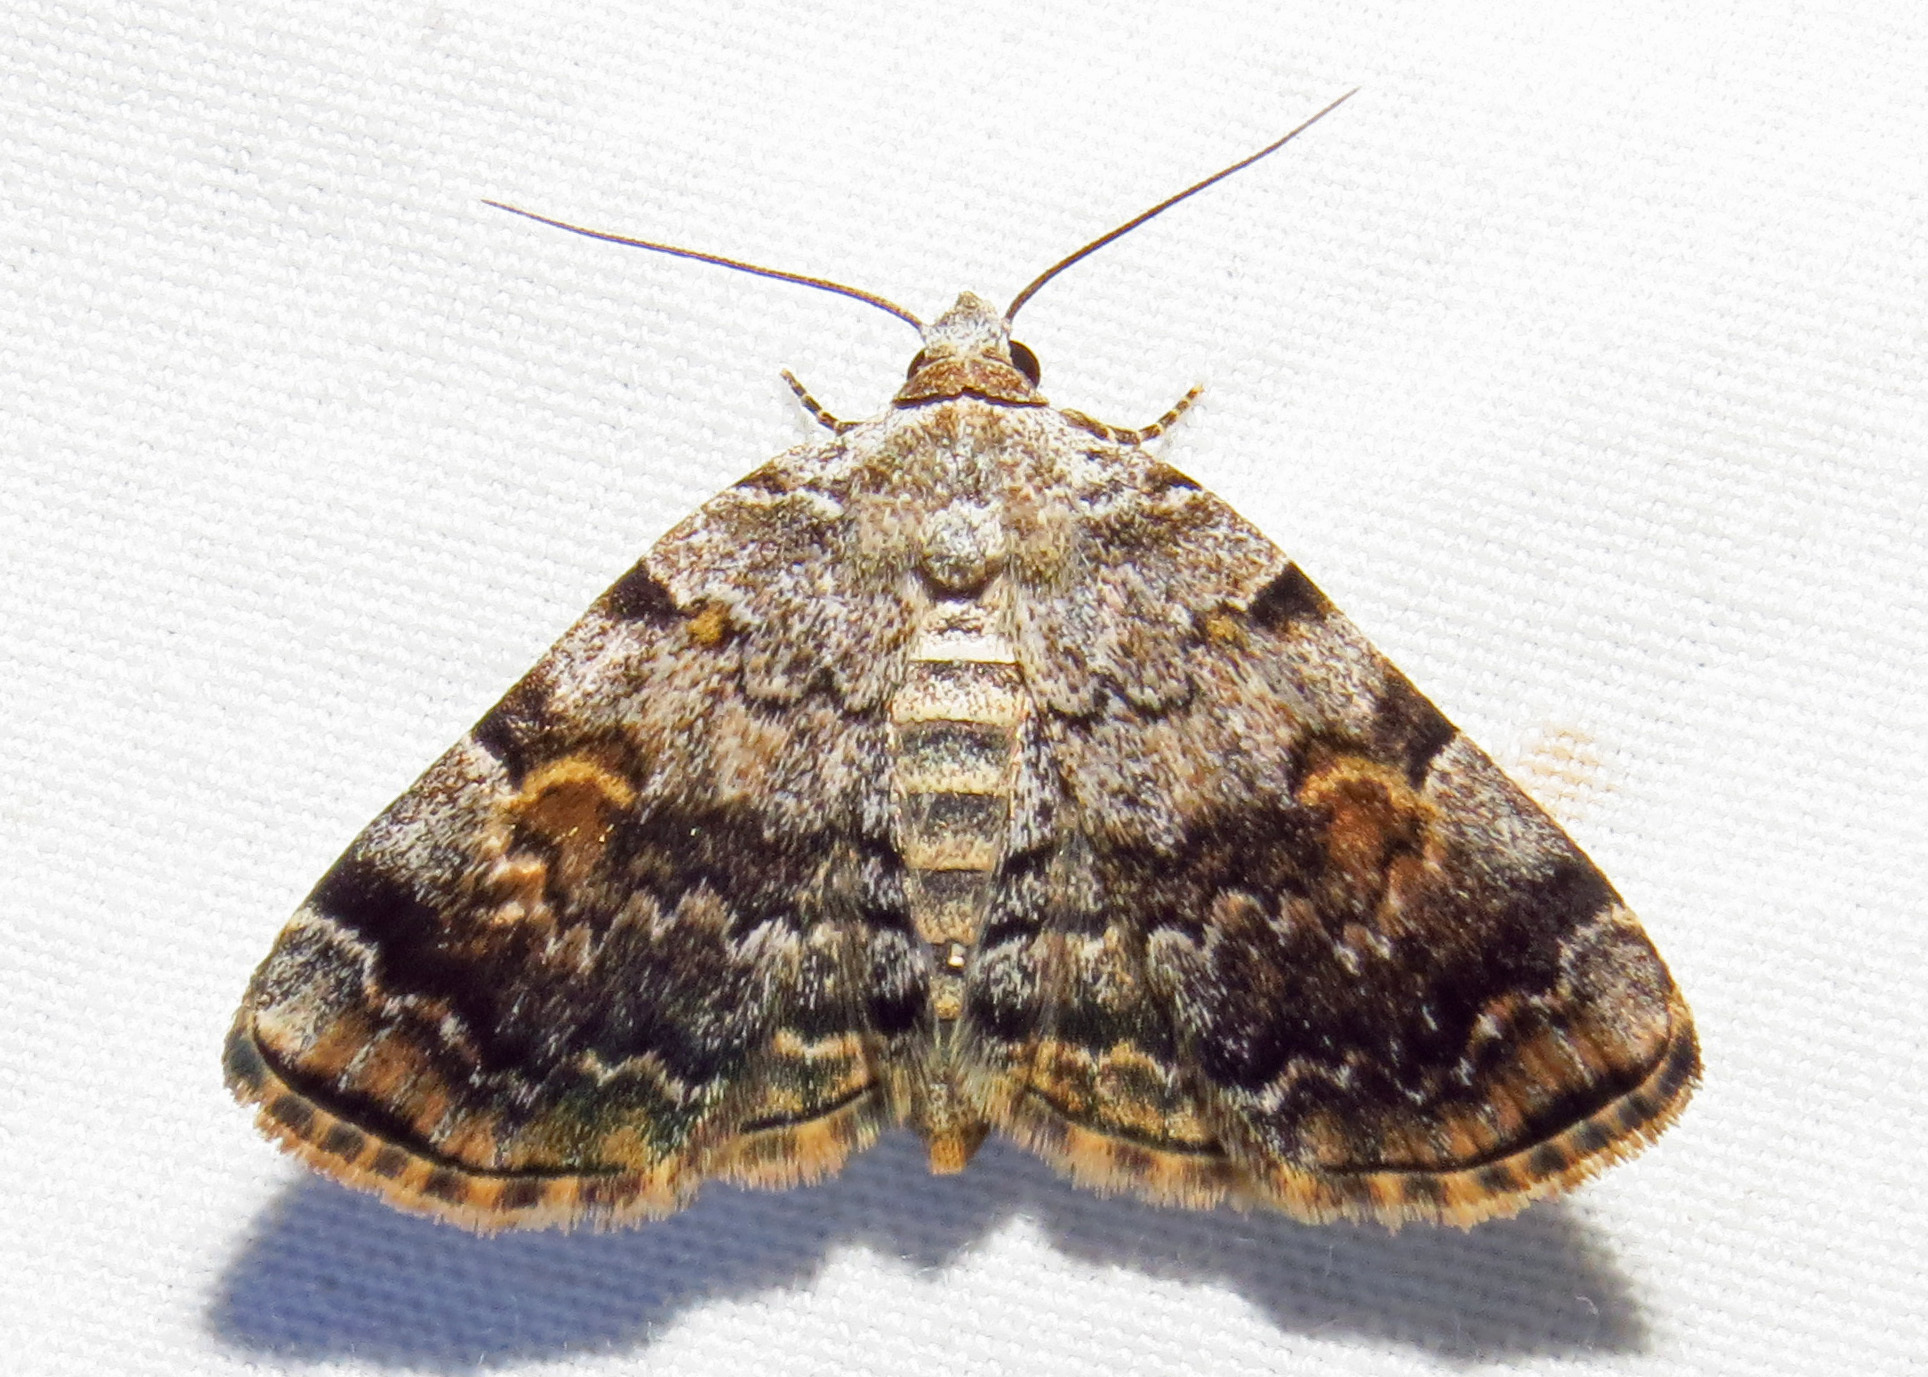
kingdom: Animalia
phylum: Arthropoda
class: Insecta
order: Lepidoptera
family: Erebidae
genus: Idia
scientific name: Idia americalis
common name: American idia moth
